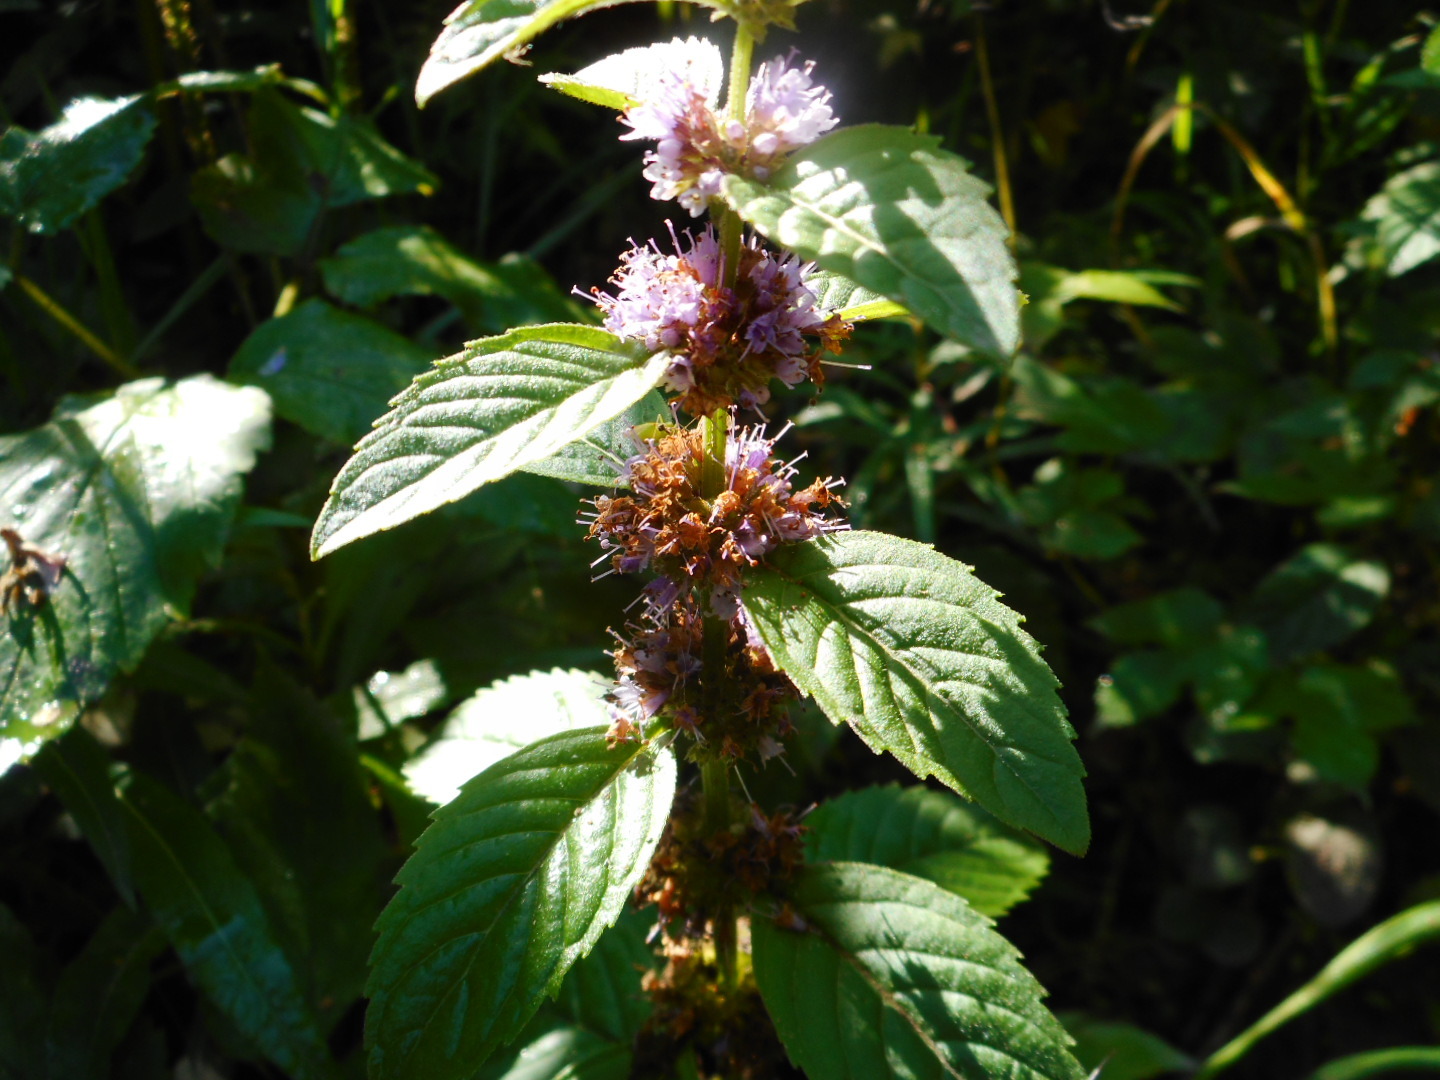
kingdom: Plantae
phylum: Tracheophyta
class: Magnoliopsida
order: Lamiales
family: Lamiaceae
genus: Mentha
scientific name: Mentha arvensis
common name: Corn mint
